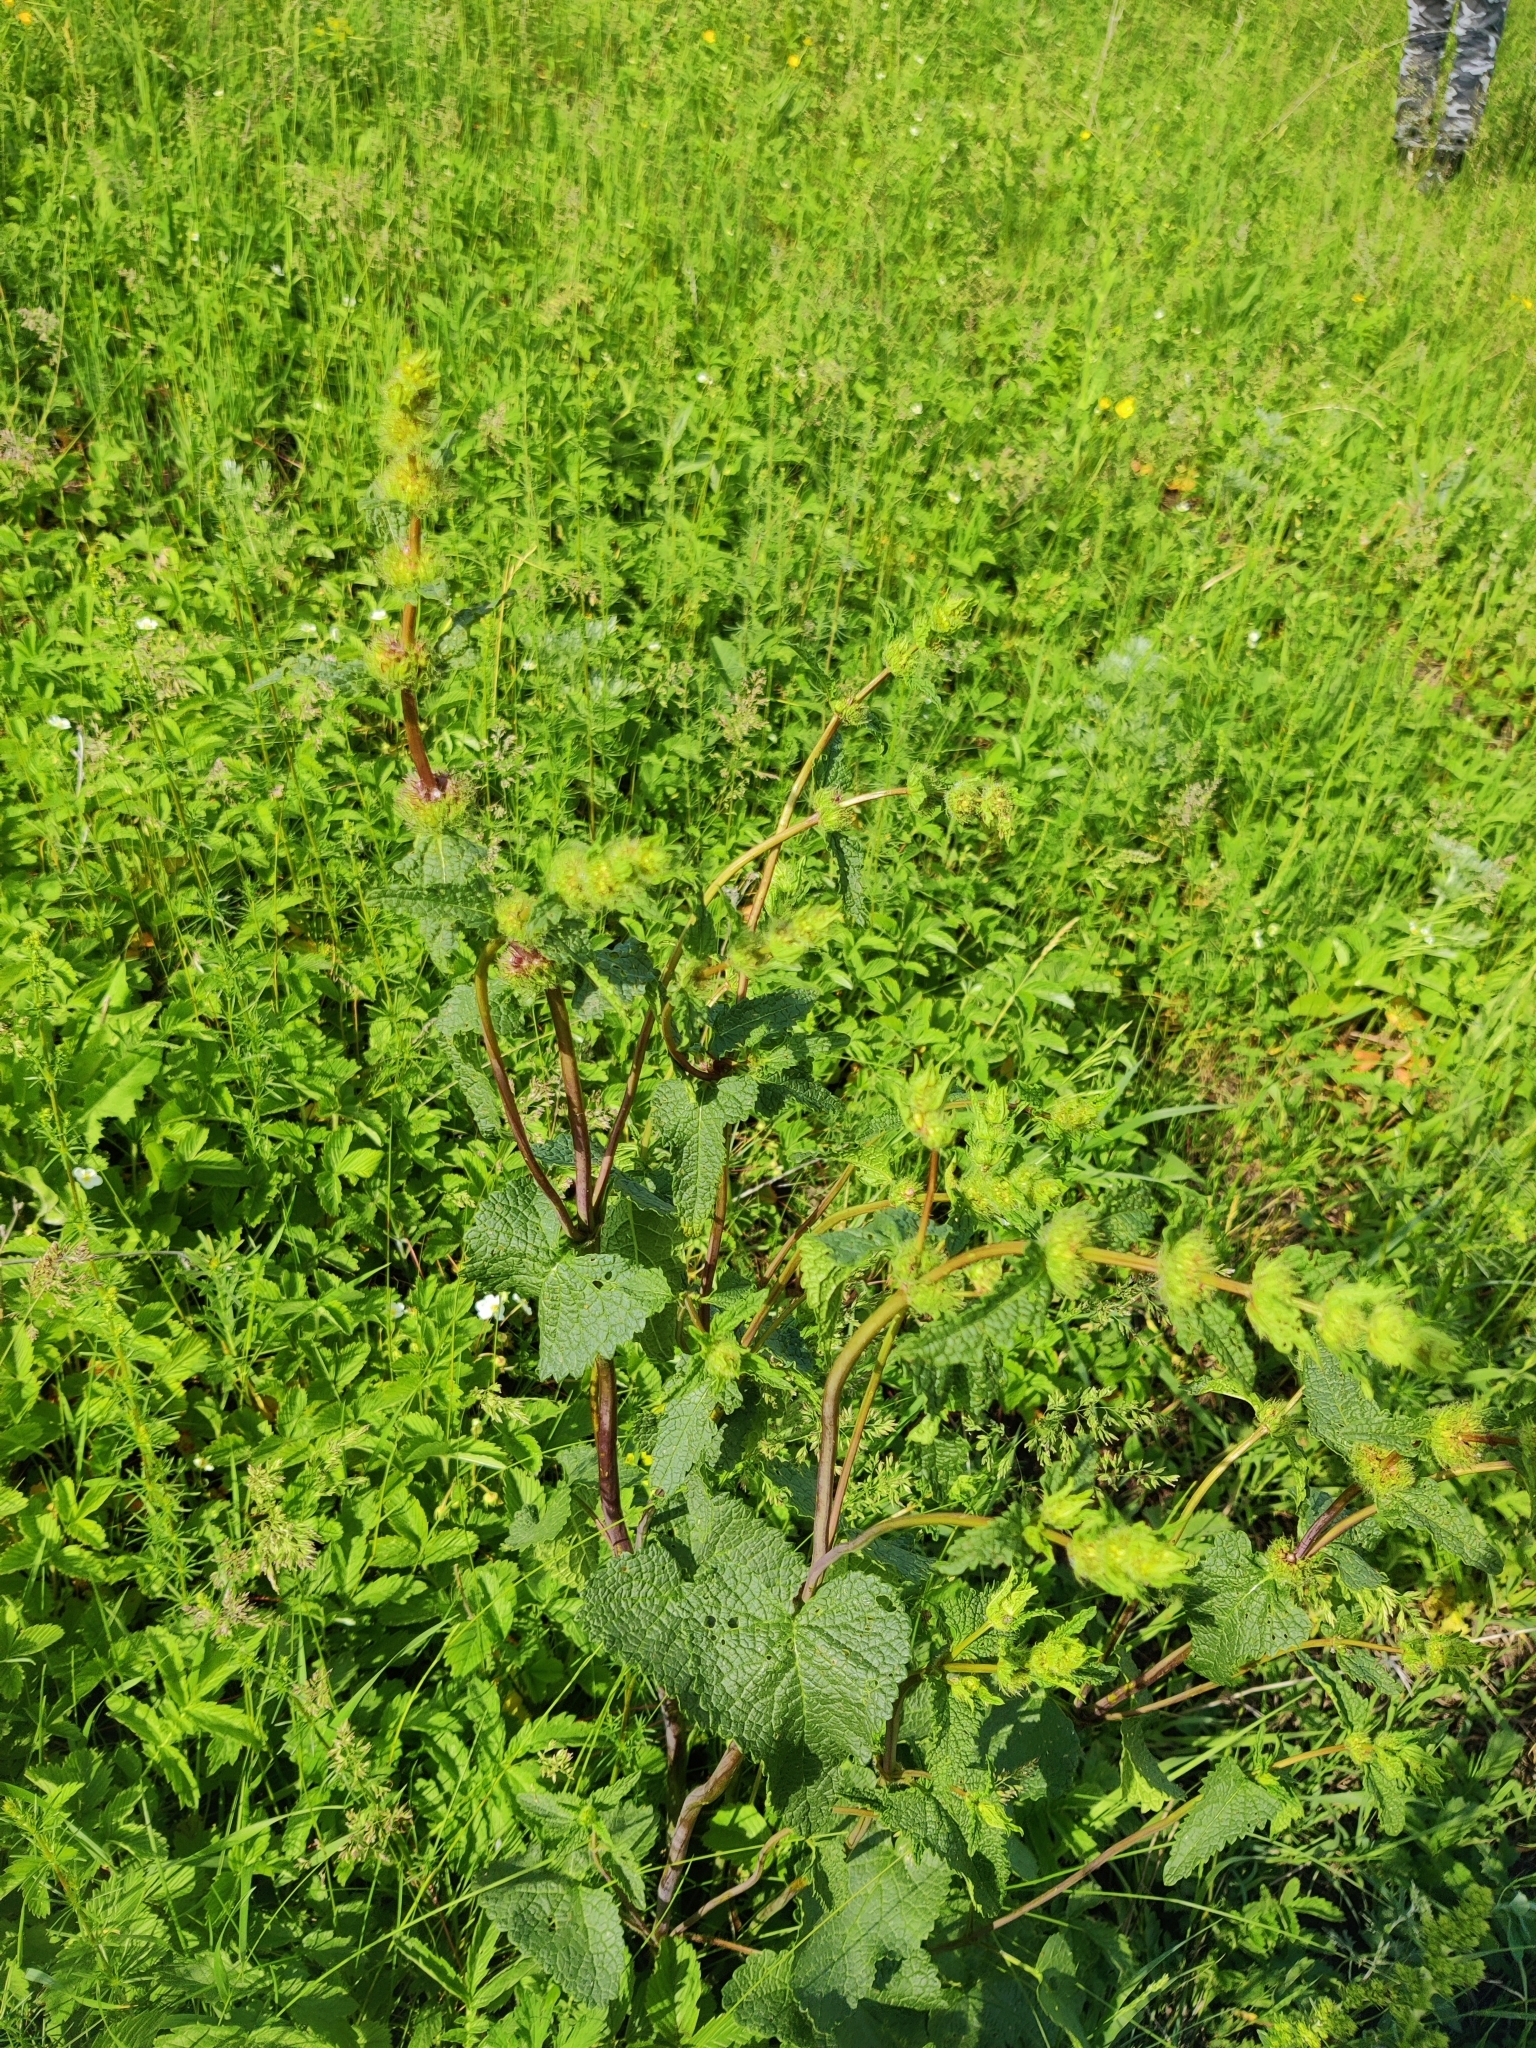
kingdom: Plantae
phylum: Tracheophyta
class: Magnoliopsida
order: Lamiales
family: Lamiaceae
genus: Phlomoides
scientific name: Phlomoides tuberosa
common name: Tuberous jerusalem sage
